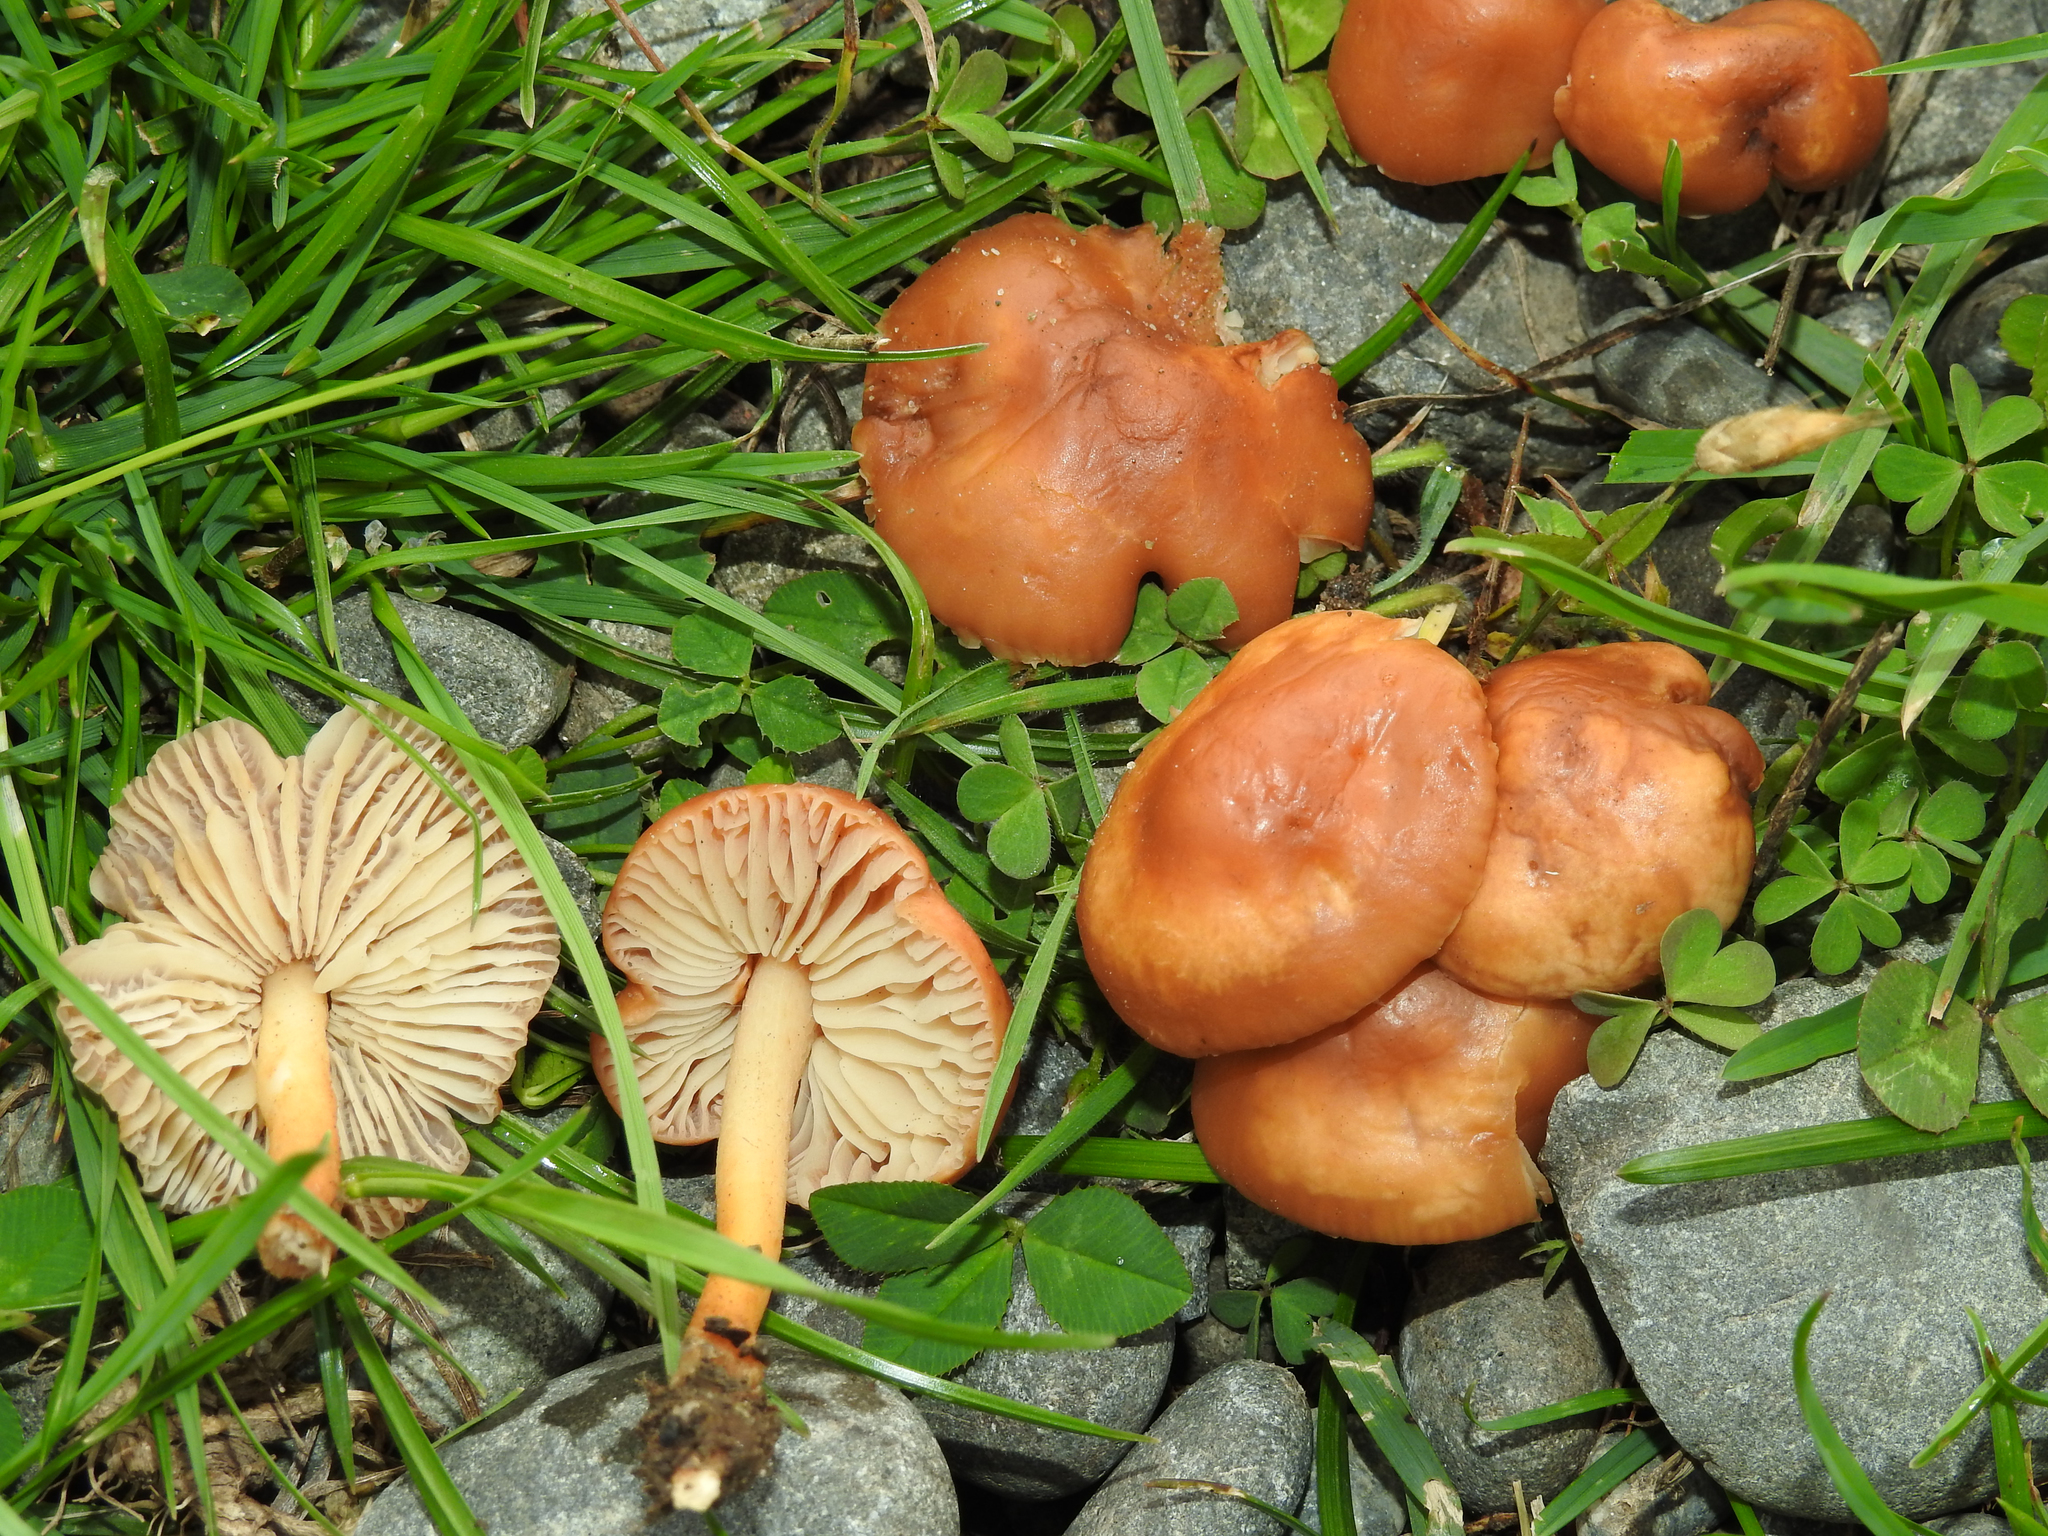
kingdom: Fungi
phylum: Basidiomycota
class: Agaricomycetes
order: Agaricales
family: Marasmiaceae
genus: Marasmius
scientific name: Marasmius oreades
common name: Fairy ring champignon
